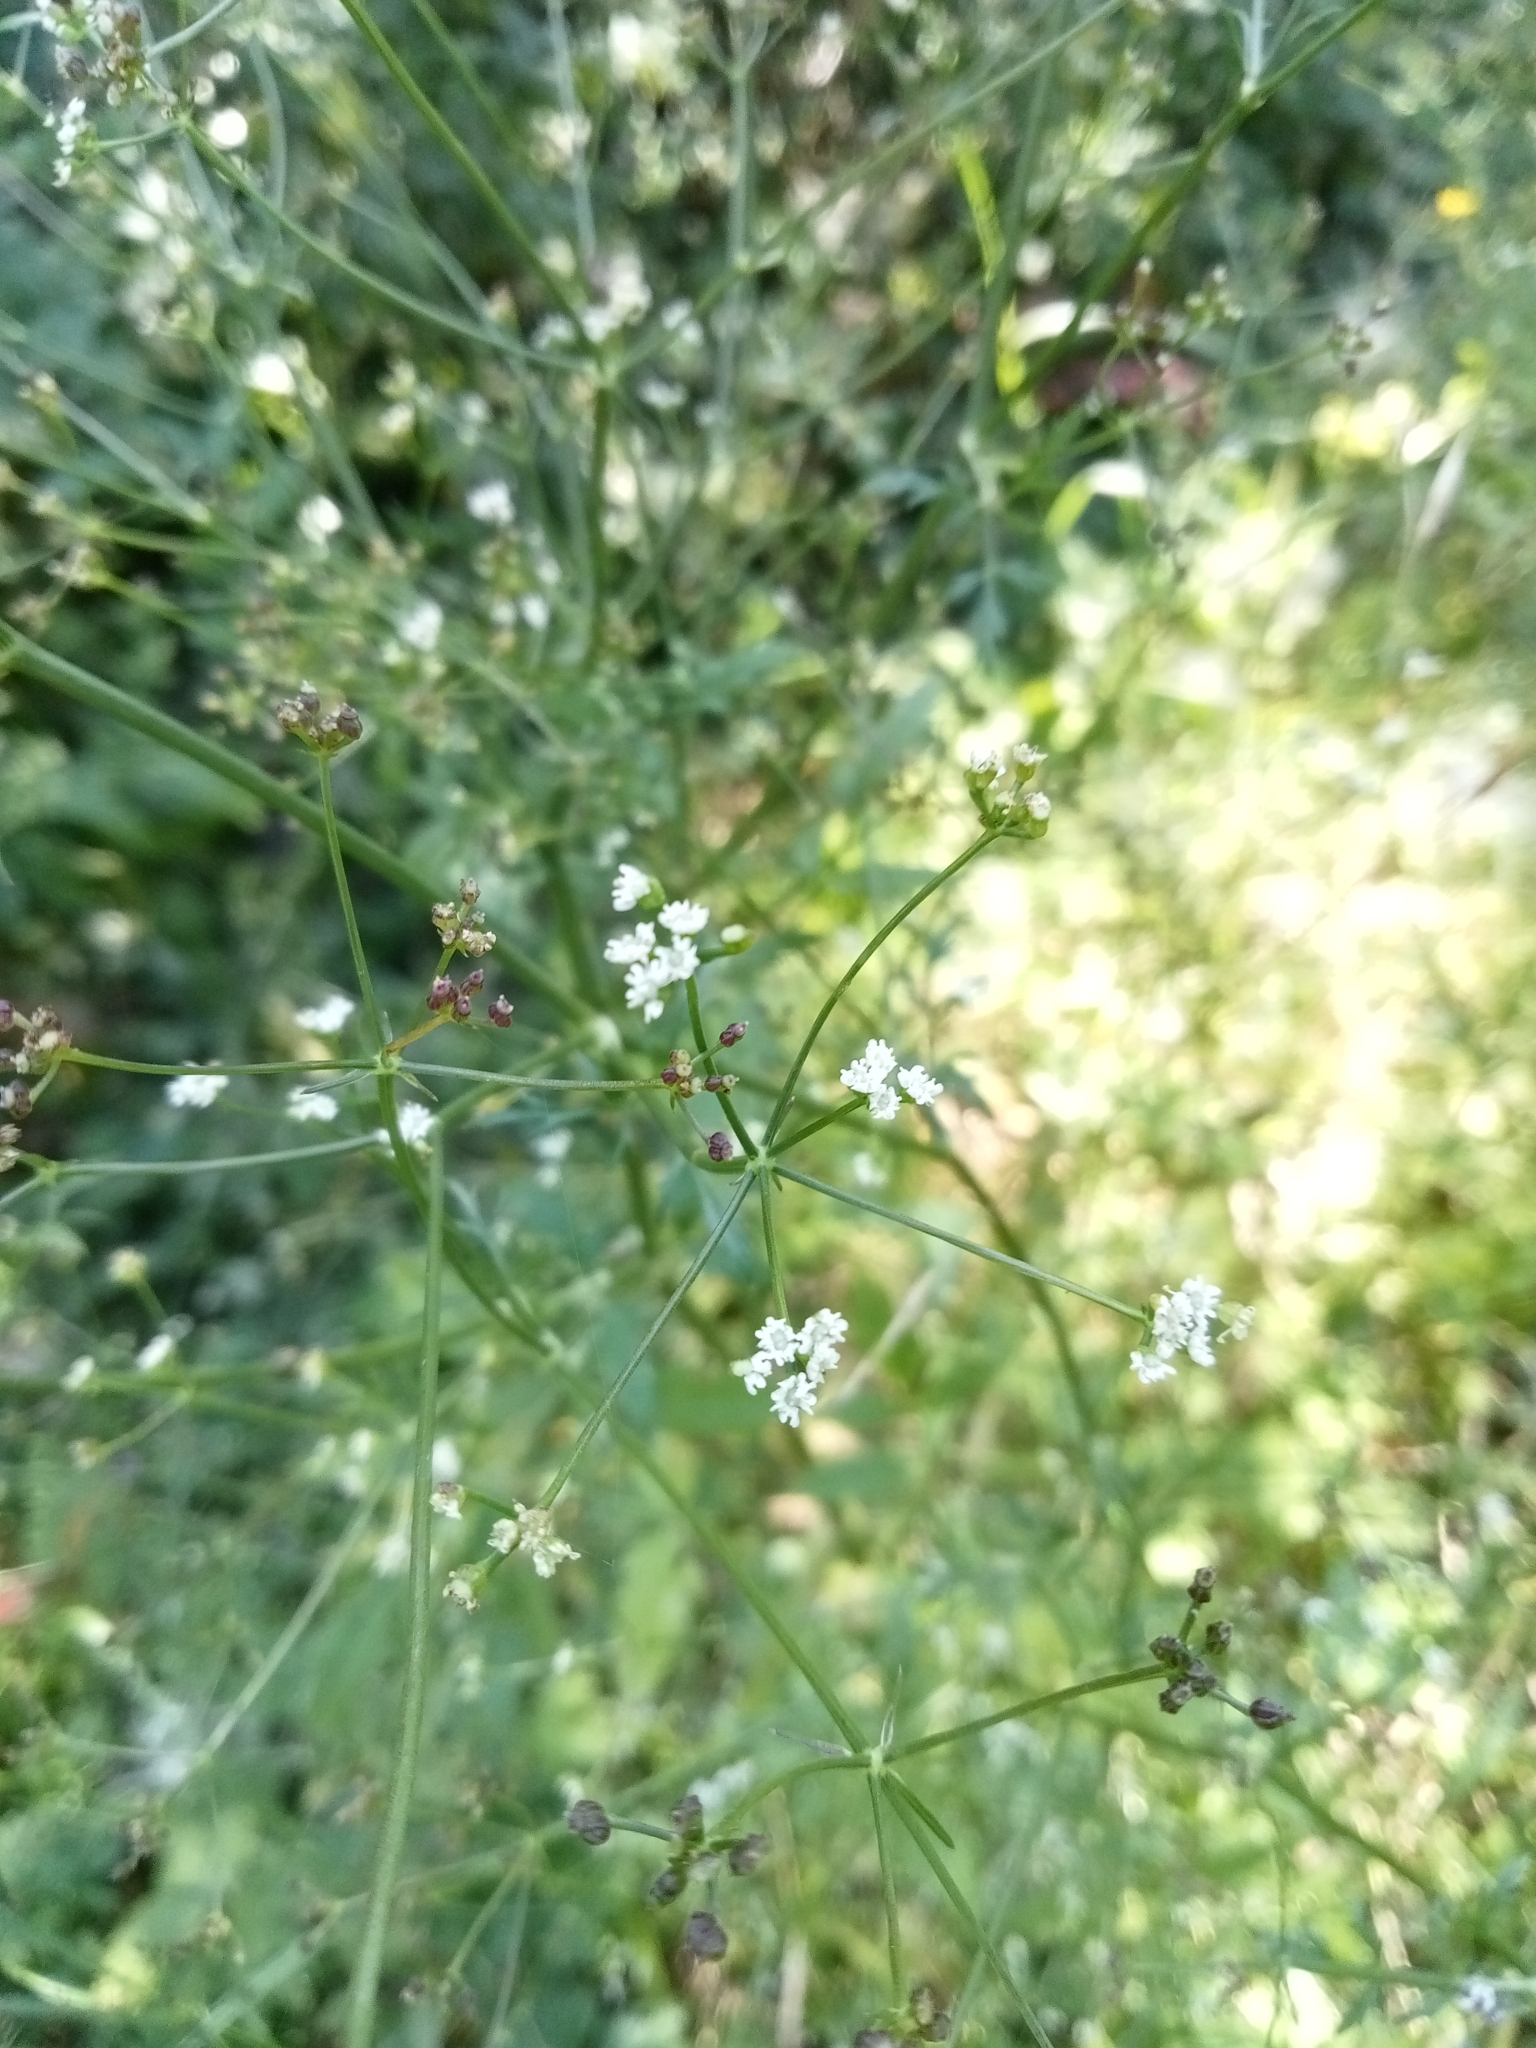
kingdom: Plantae
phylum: Tracheophyta
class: Magnoliopsida
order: Apiales
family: Apiaceae
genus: Sison
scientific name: Sison amomum
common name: Stone-parsley
